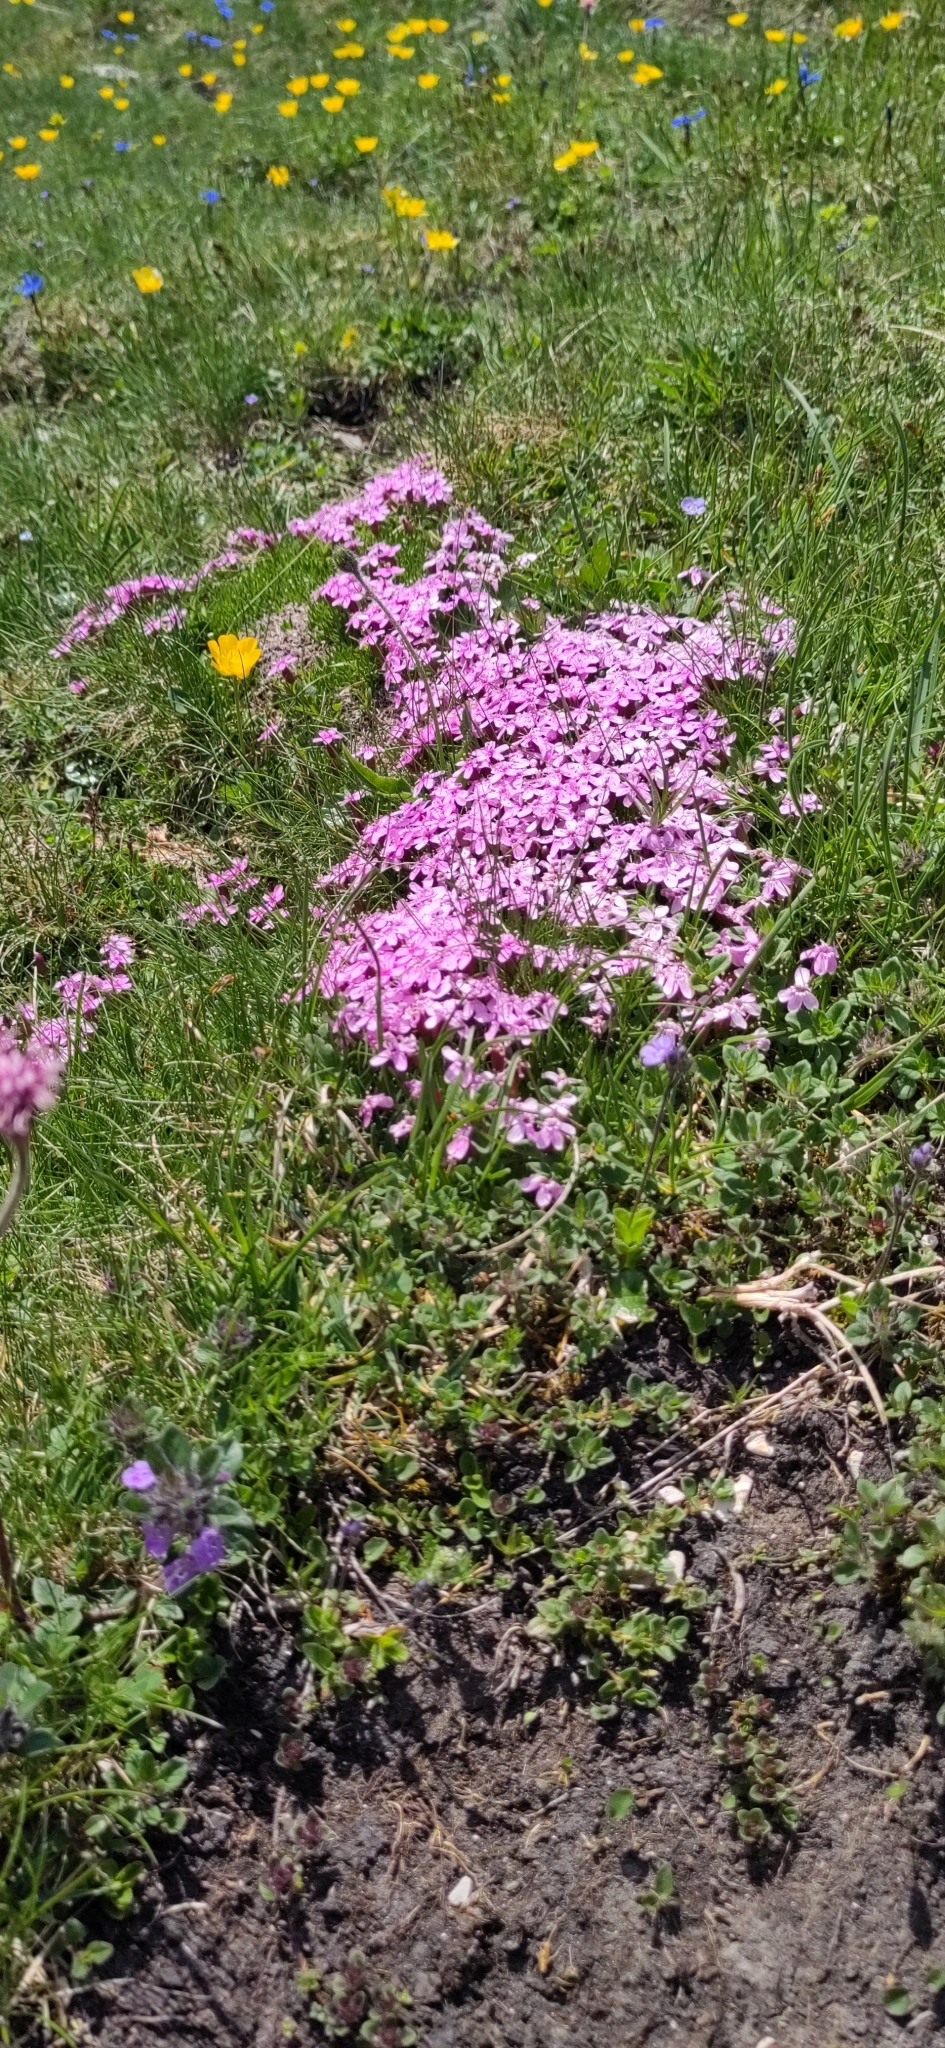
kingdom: Plantae
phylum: Tracheophyta
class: Magnoliopsida
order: Caryophyllales
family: Caryophyllaceae
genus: Silene
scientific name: Silene acaulis
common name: Moss campion
